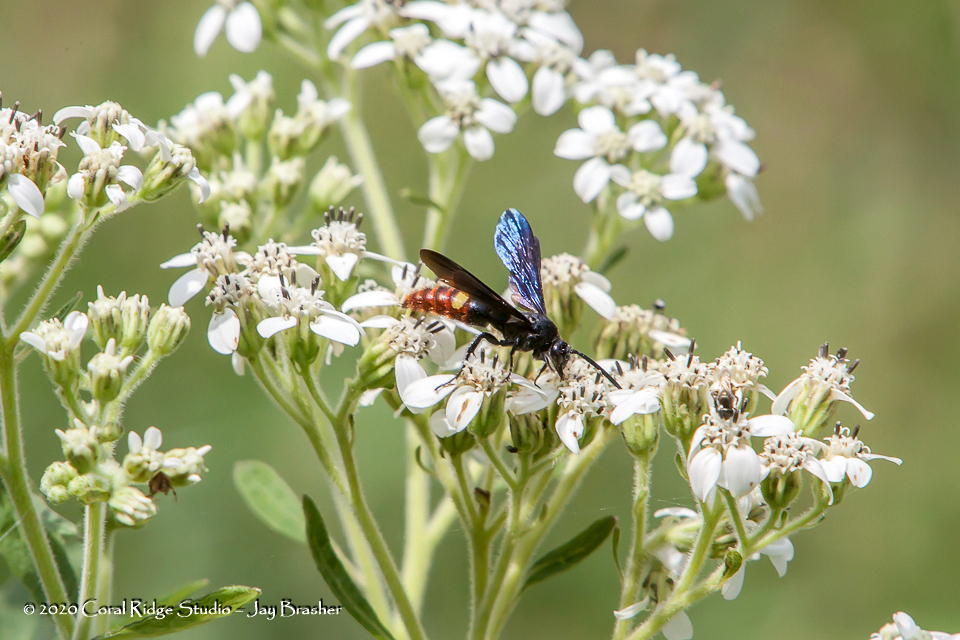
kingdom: Animalia
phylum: Arthropoda
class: Insecta
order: Hymenoptera
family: Scoliidae
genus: Scolia
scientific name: Scolia dubia
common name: Blue-winged scoliid wasp
